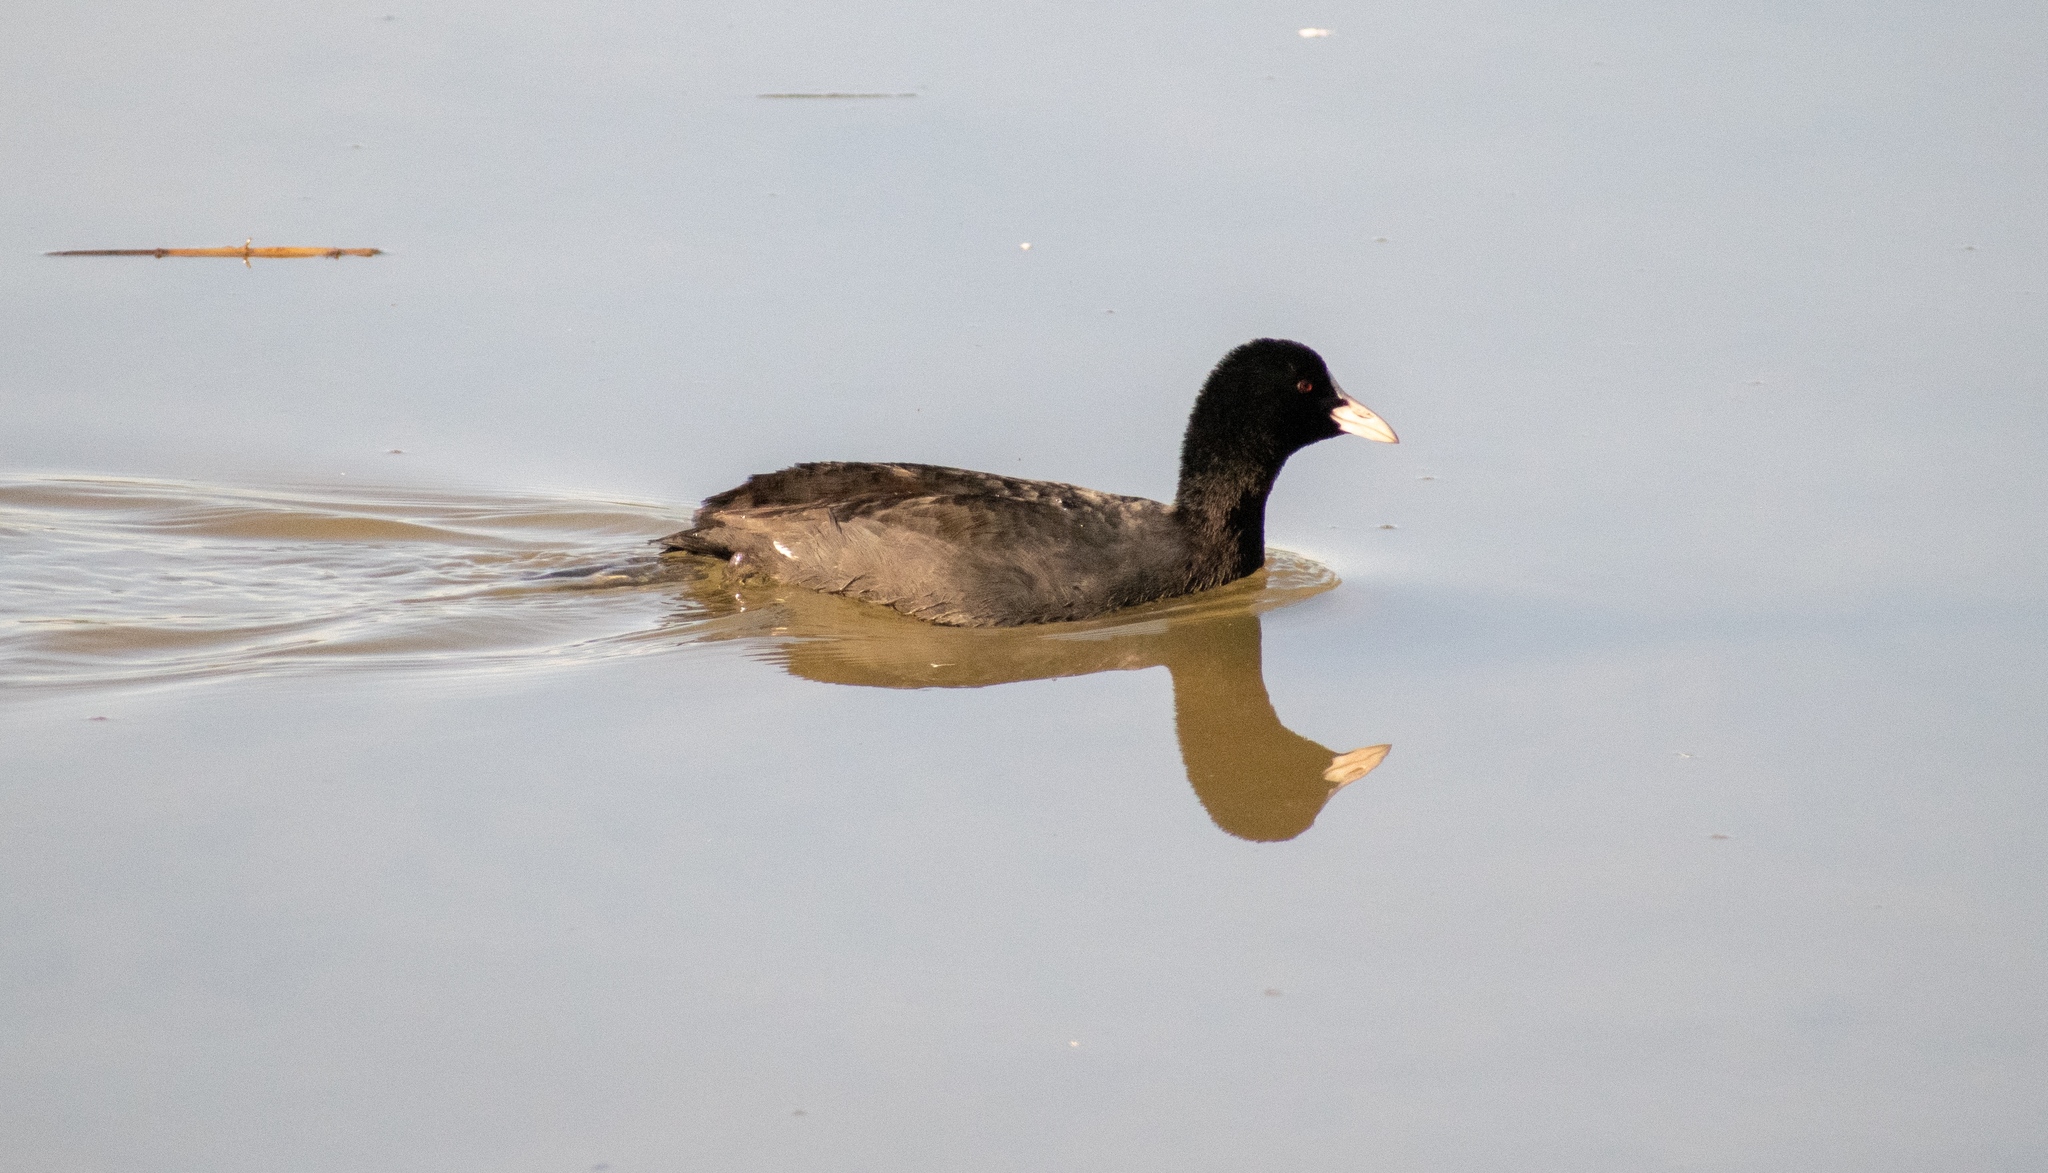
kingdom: Animalia
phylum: Chordata
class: Aves
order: Gruiformes
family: Rallidae
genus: Fulica
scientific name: Fulica atra
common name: Eurasian coot
